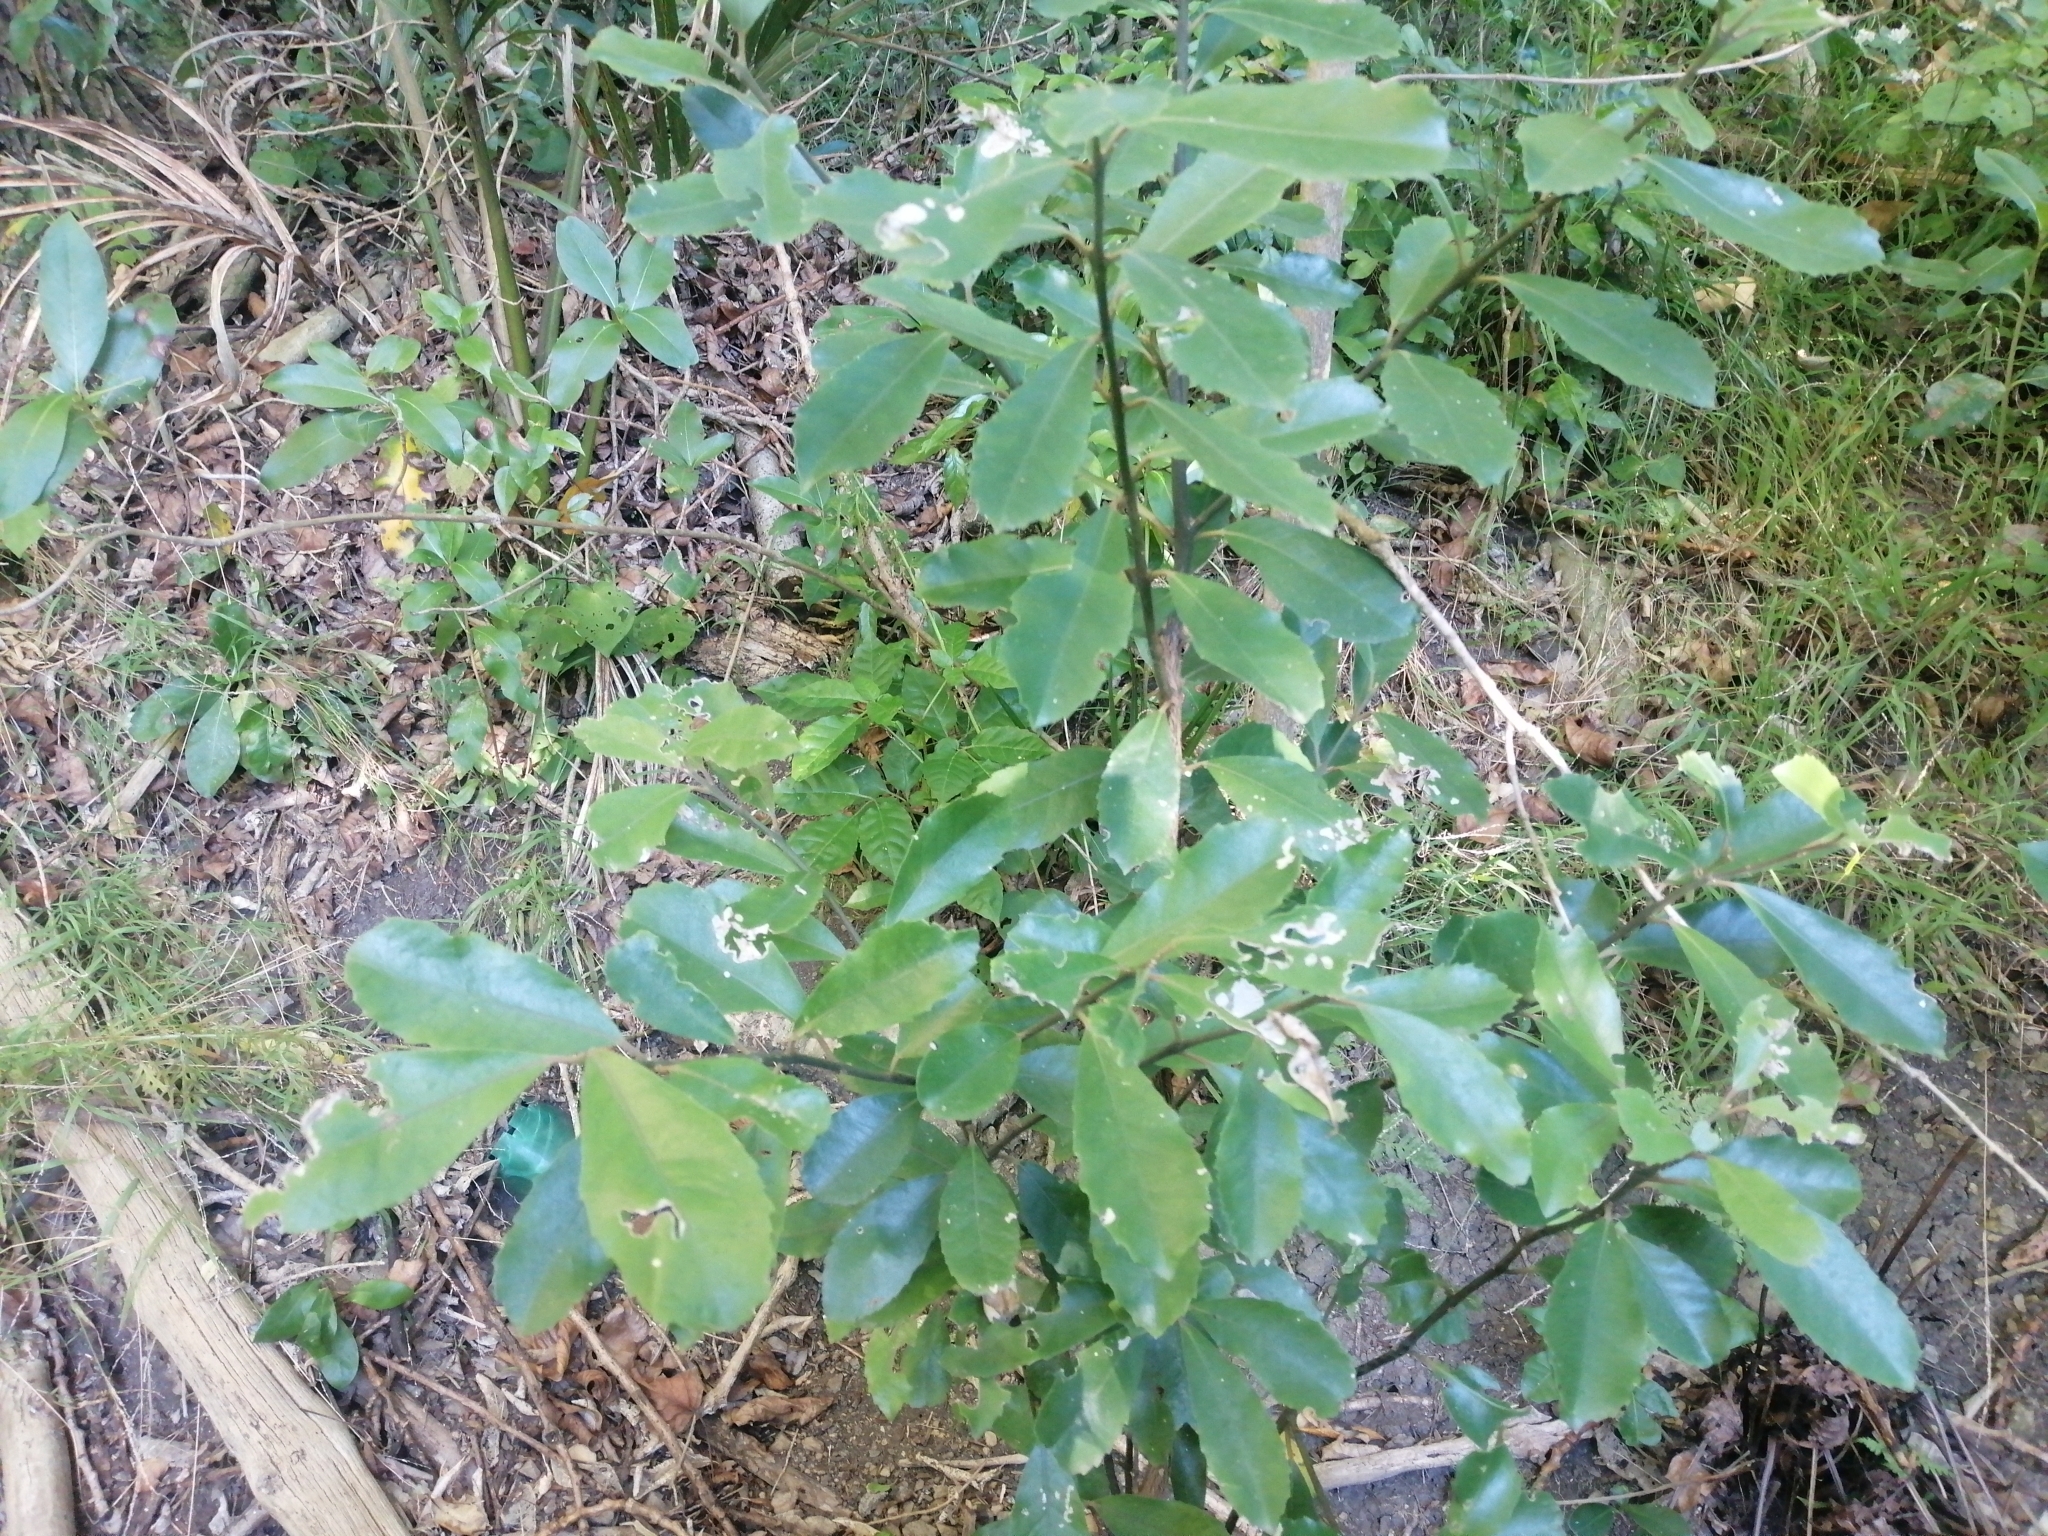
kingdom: Plantae
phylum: Tracheophyta
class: Magnoliopsida
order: Laurales
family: Monimiaceae
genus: Hedycarya
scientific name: Hedycarya arborea
